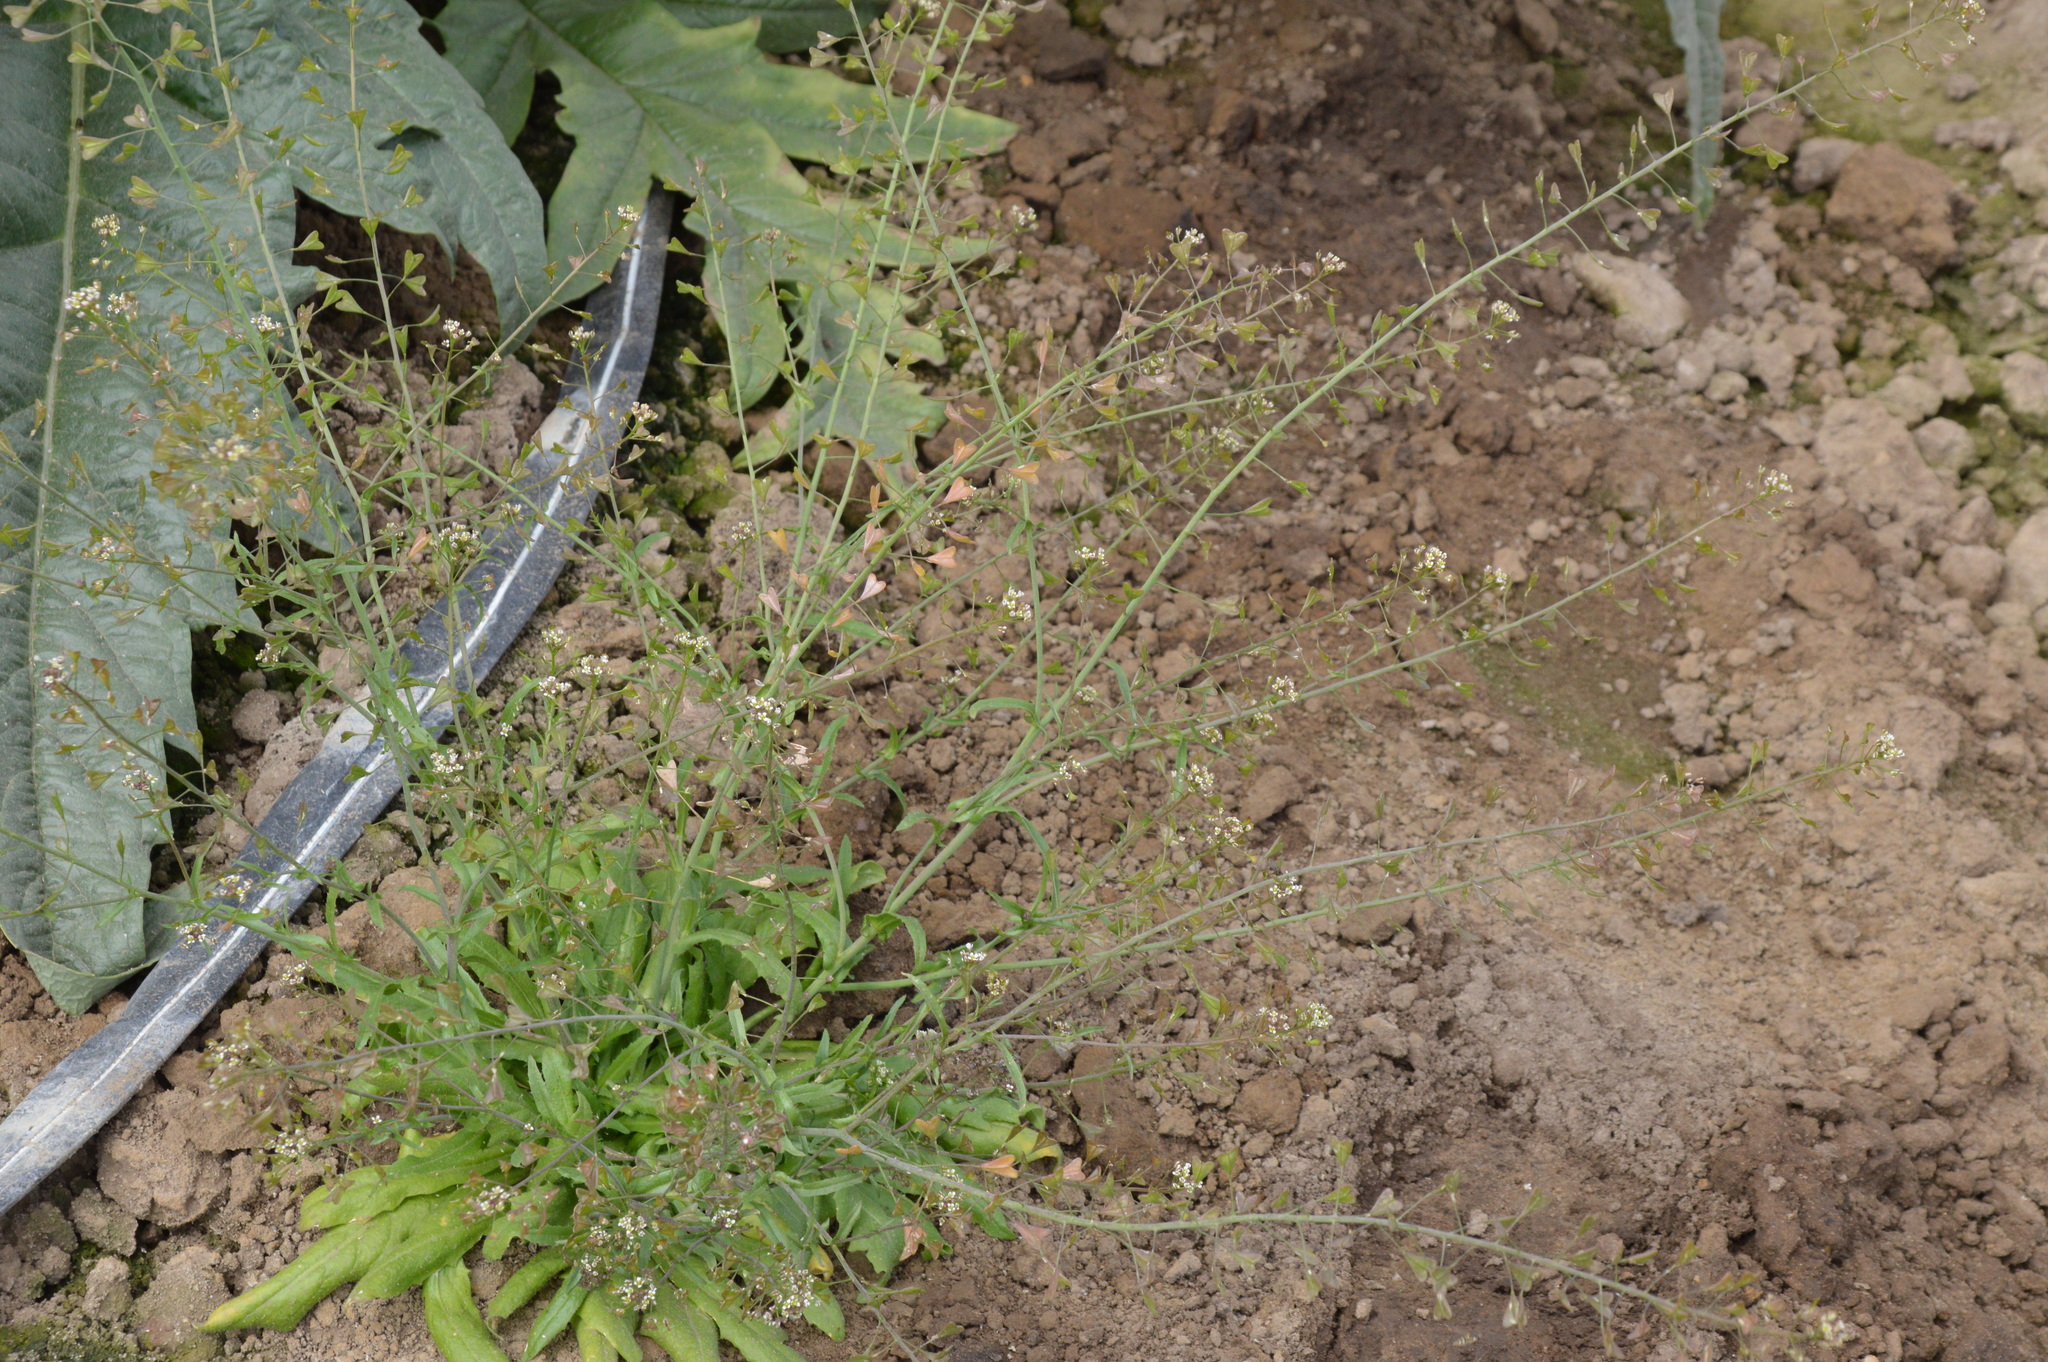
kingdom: Plantae
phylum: Tracheophyta
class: Magnoliopsida
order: Brassicales
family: Brassicaceae
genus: Capsella
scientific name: Capsella bursa-pastoris
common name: Shepherd's purse
